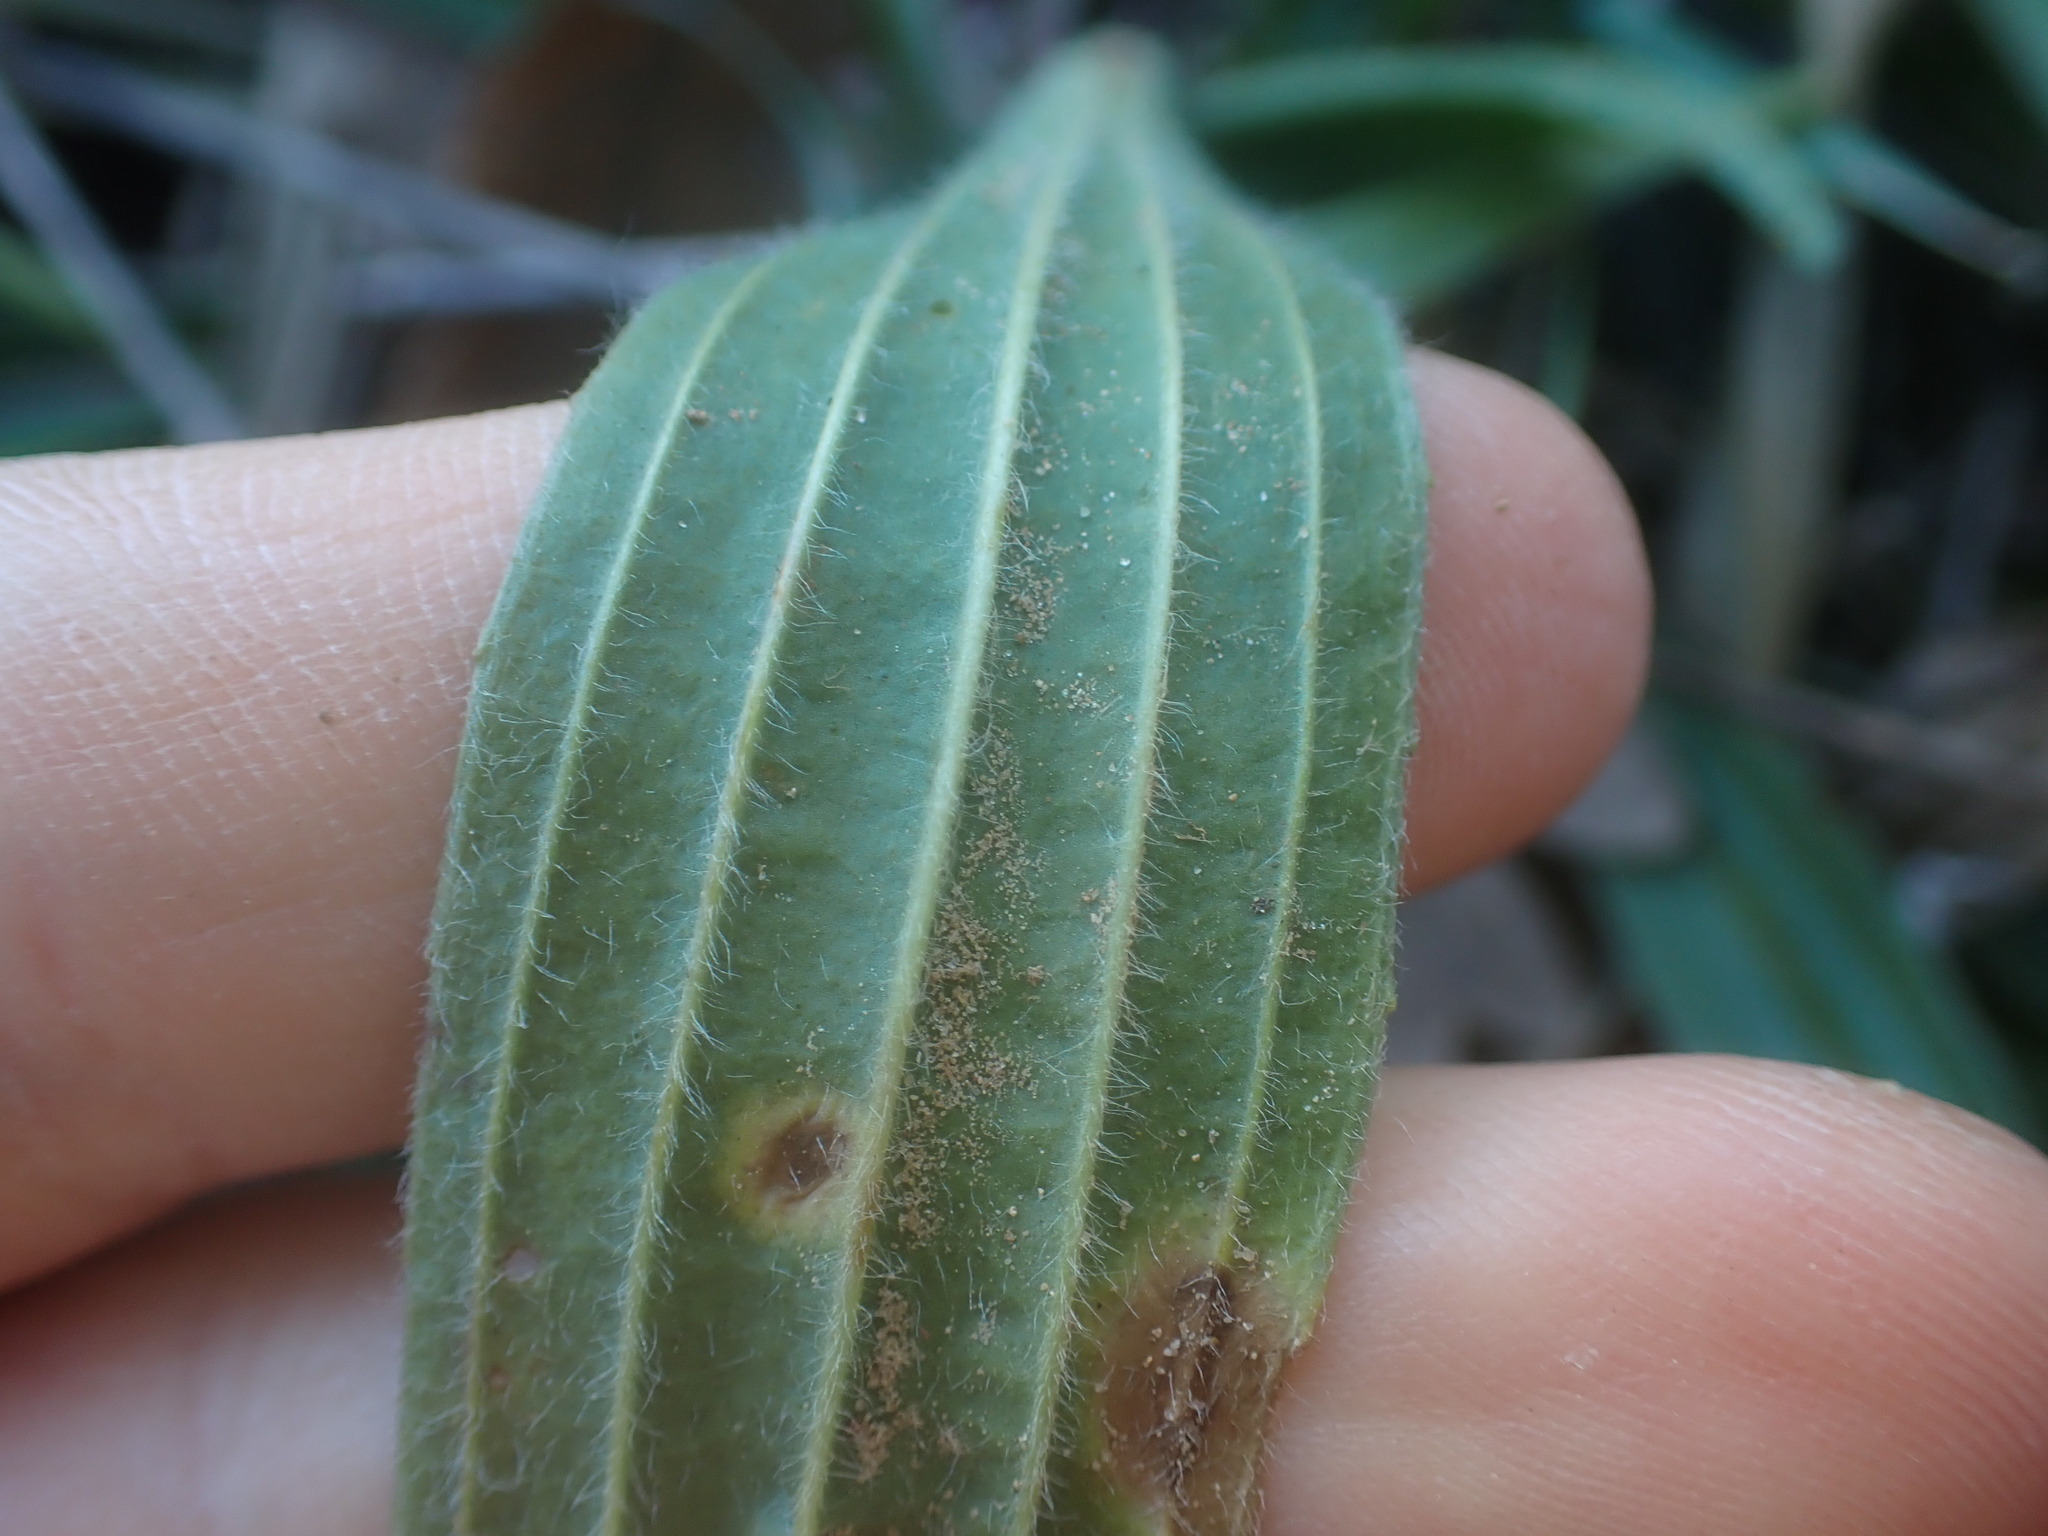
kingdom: Plantae
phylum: Tracheophyta
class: Magnoliopsida
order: Lamiales
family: Plantaginaceae
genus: Plantago
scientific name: Plantago lanceolata
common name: Ribwort plantain
